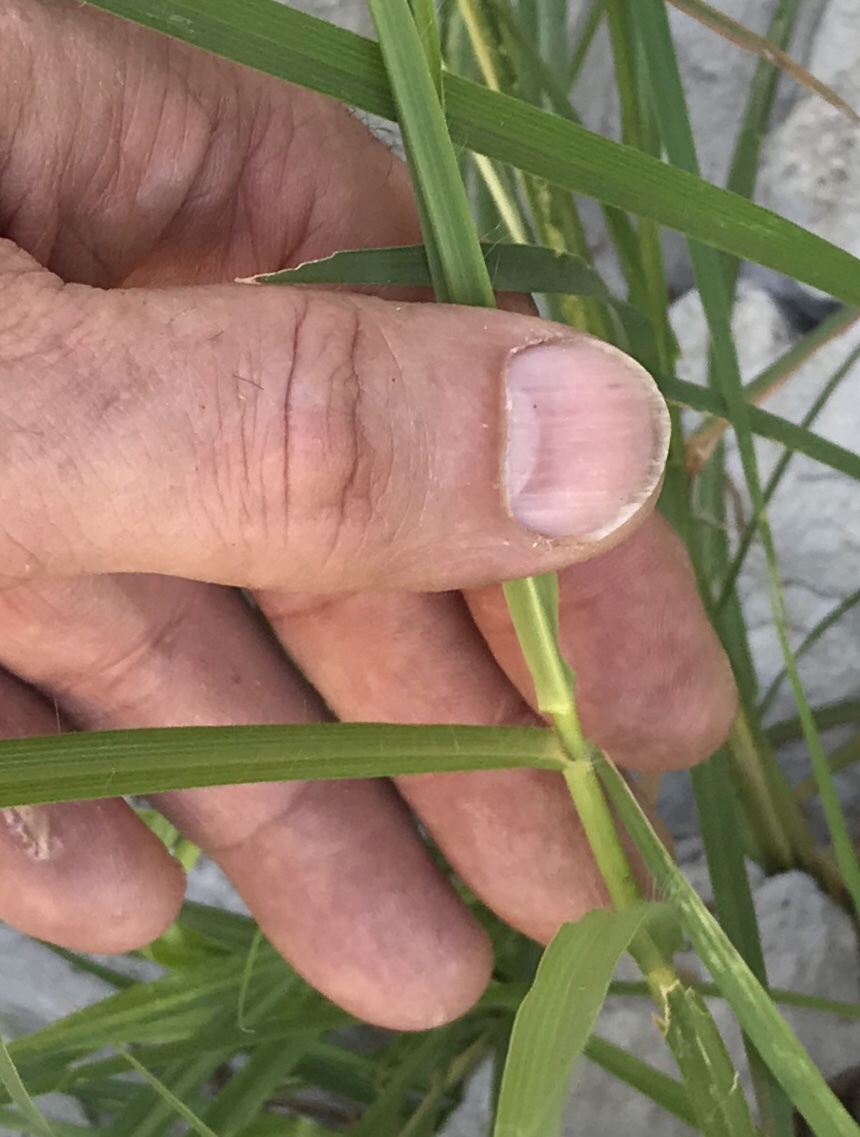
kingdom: Plantae
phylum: Tracheophyta
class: Liliopsida
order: Poales
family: Poaceae
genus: Bothriochloa
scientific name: Bothriochloa ischaemum
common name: Yellow bluestem
